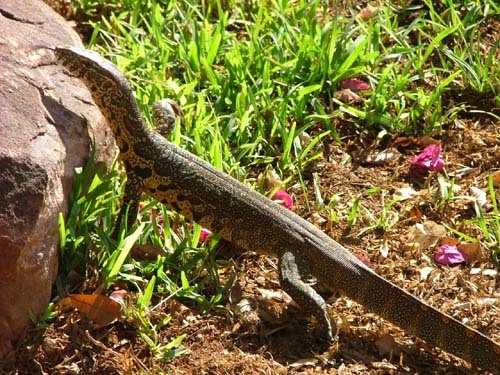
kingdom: Animalia
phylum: Chordata
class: Squamata
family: Varanidae
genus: Varanus
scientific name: Varanus niloticus
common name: Nile monitor
